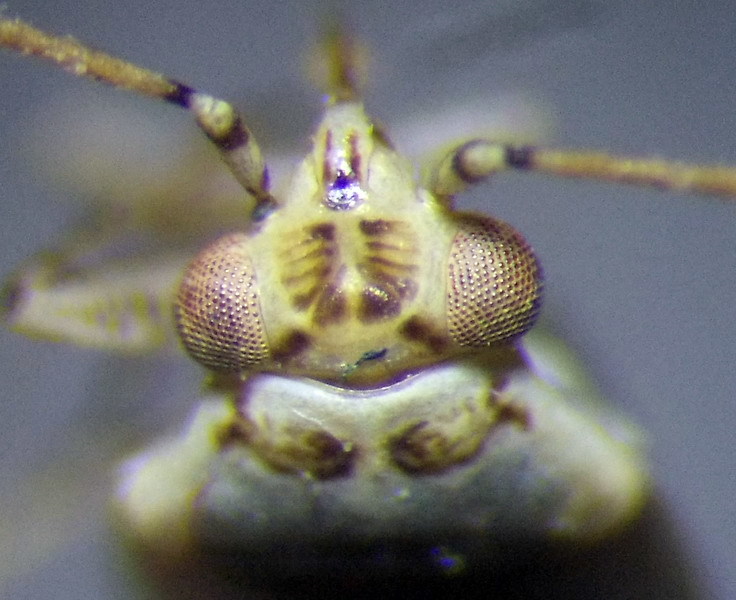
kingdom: Animalia
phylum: Arthropoda
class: Insecta
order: Hemiptera
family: Miridae
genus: Chlorillus
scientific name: Chlorillus pictus
